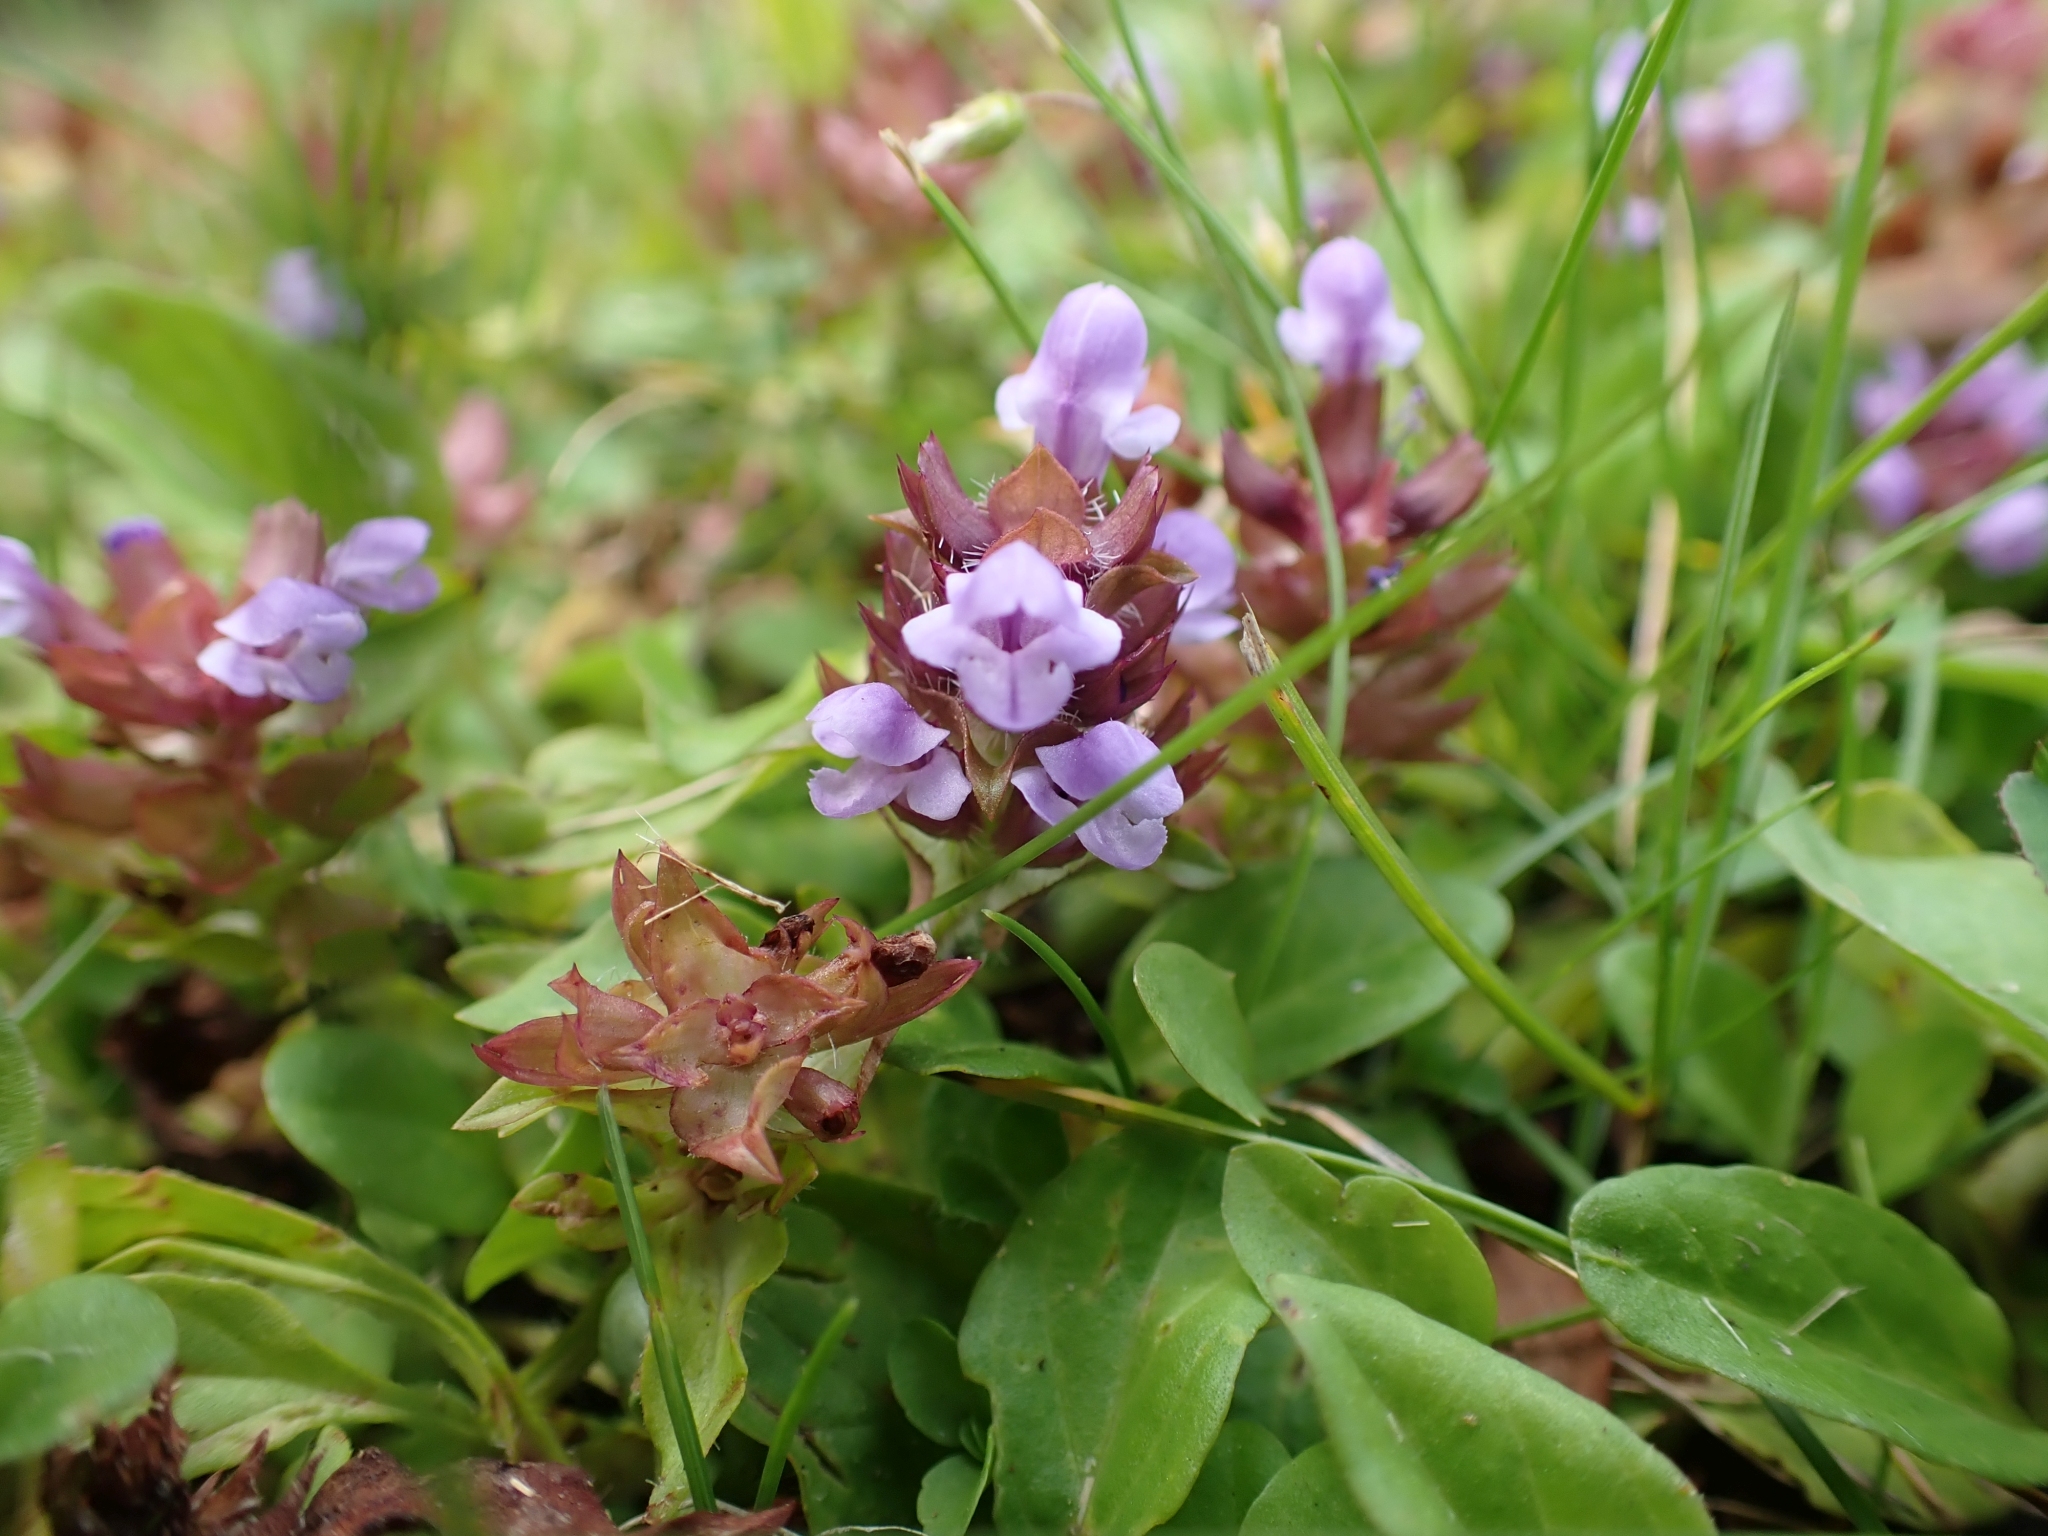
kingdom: Plantae
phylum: Tracheophyta
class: Magnoliopsida
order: Lamiales
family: Lamiaceae
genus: Prunella
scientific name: Prunella vulgaris
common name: Heal-all
